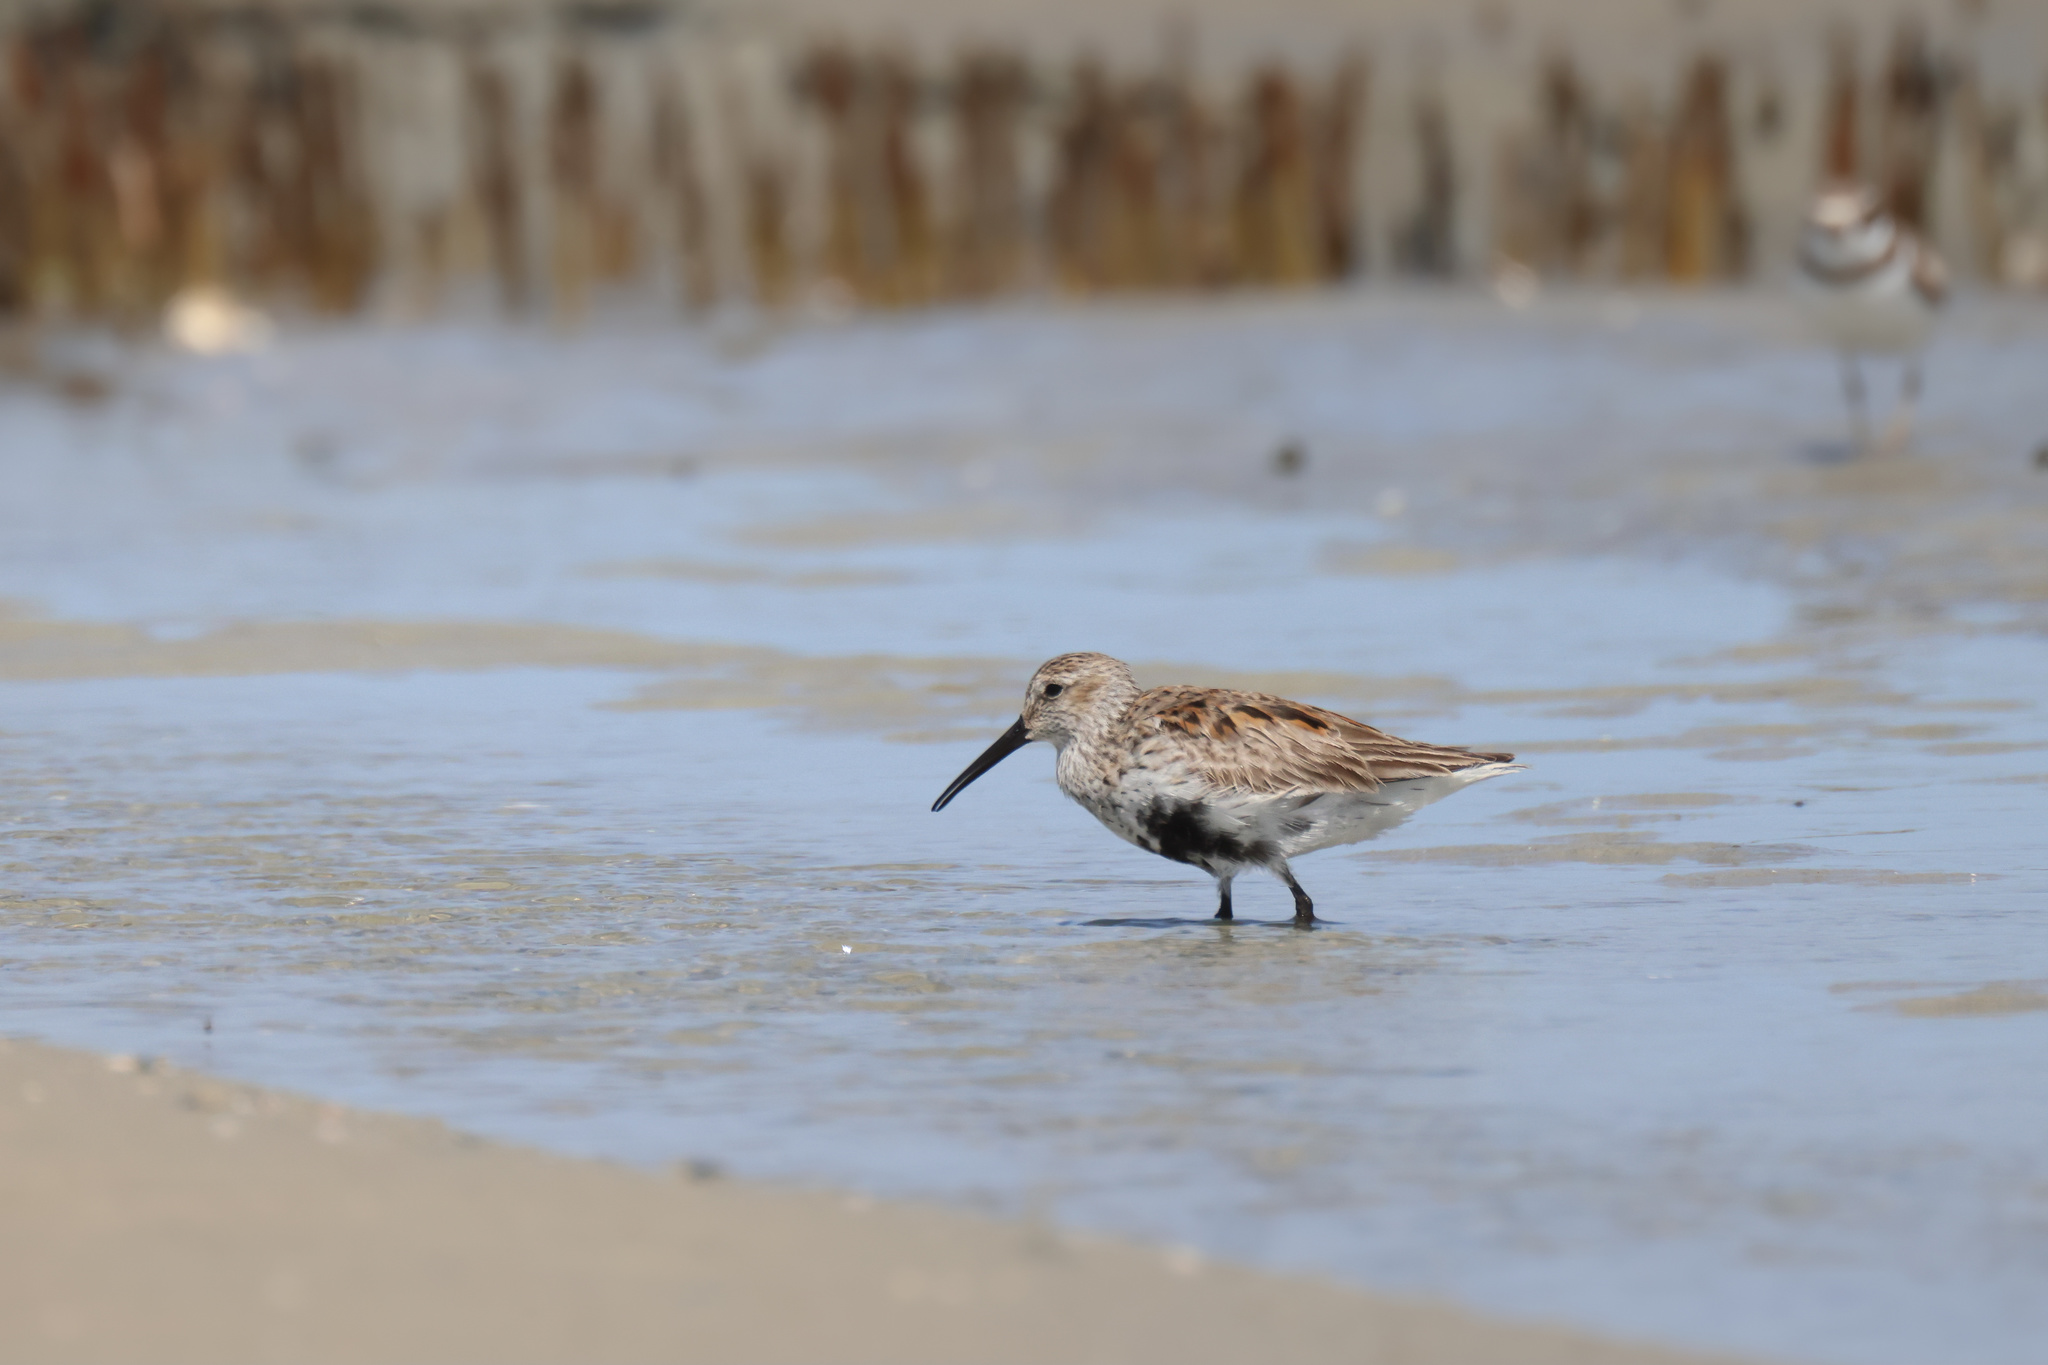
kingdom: Animalia
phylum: Chordata
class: Aves
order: Charadriiformes
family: Scolopacidae
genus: Calidris
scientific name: Calidris alpina
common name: Dunlin
